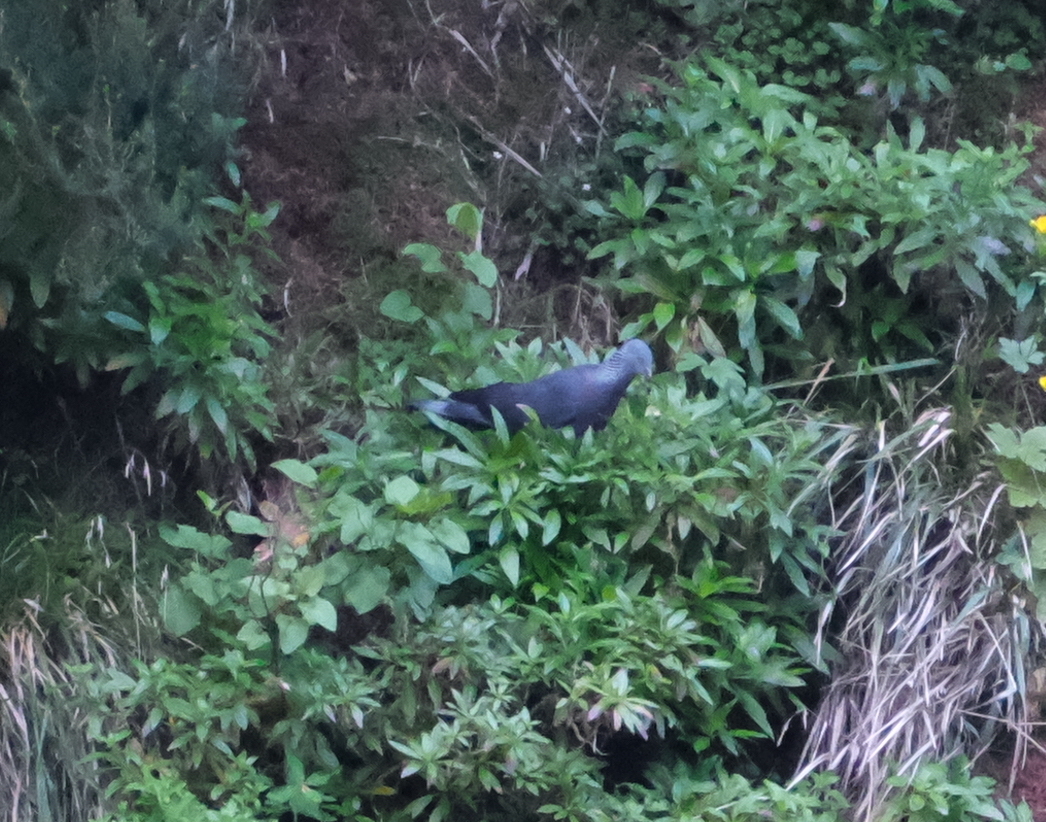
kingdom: Animalia
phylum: Chordata
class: Aves
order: Columbiformes
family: Columbidae
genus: Columba
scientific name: Columba trocaz
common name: Trocaz pigeon
